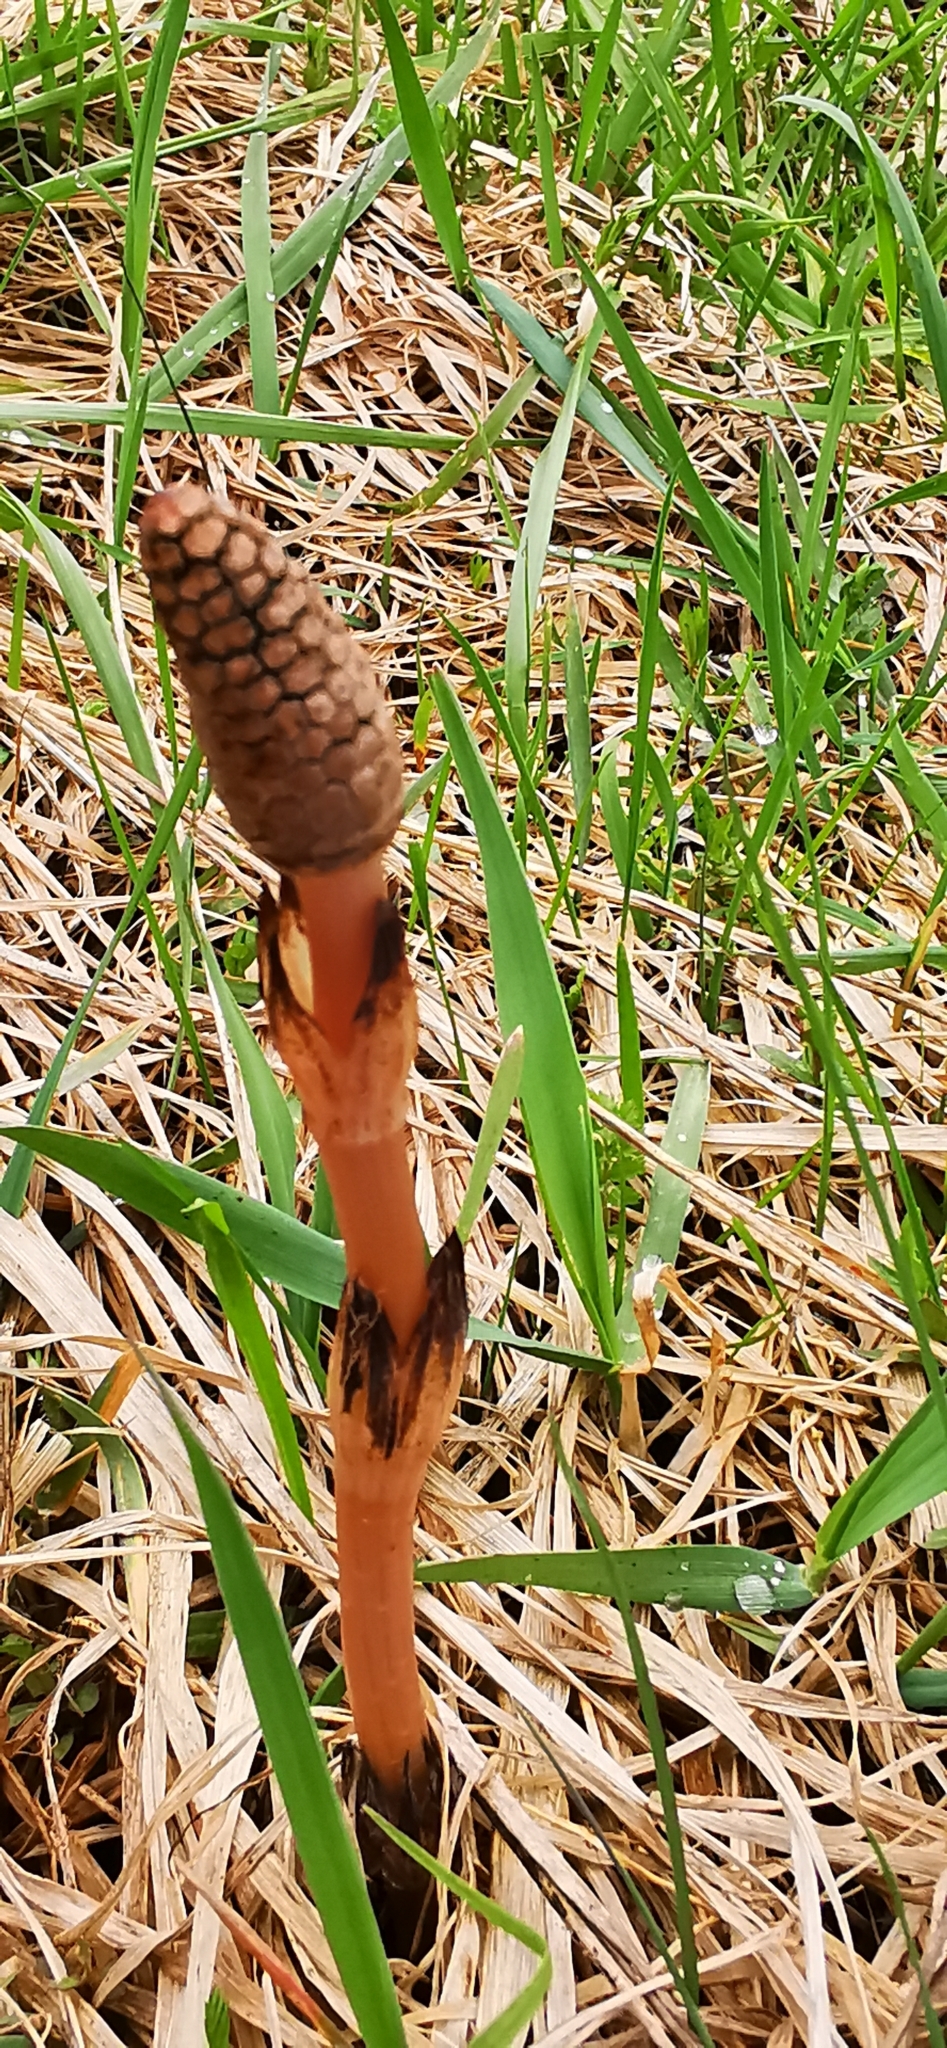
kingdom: Plantae
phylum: Tracheophyta
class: Polypodiopsida
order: Equisetales
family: Equisetaceae
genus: Equisetum
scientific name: Equisetum arvense
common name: Field horsetail
